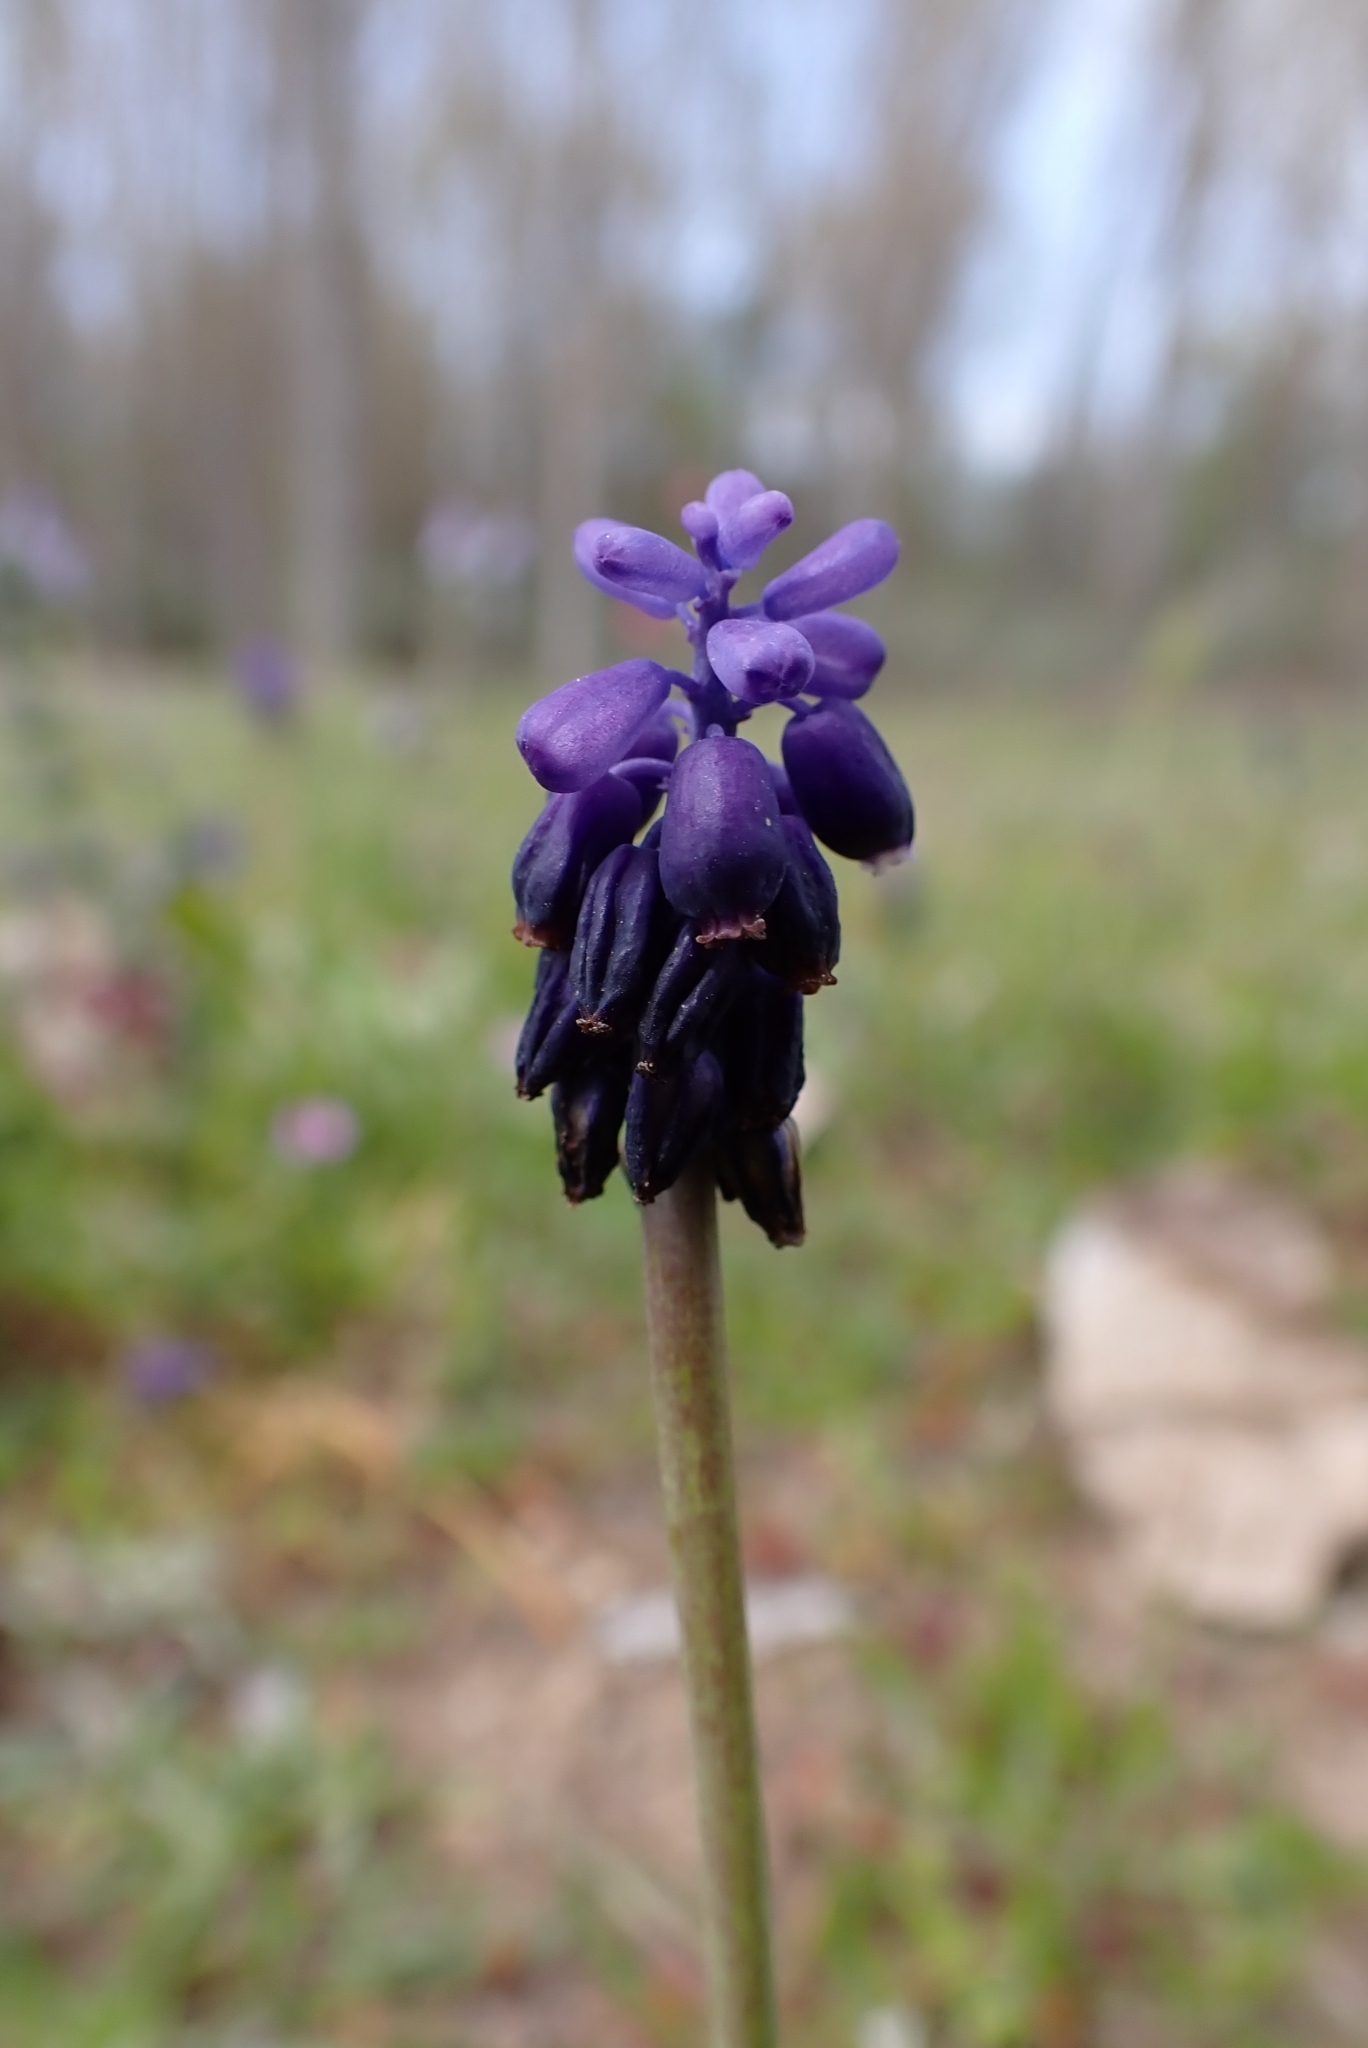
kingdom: Plantae
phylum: Tracheophyta
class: Liliopsida
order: Asparagales
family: Asparagaceae
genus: Muscari
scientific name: Muscari neglectum
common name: Grape-hyacinth
